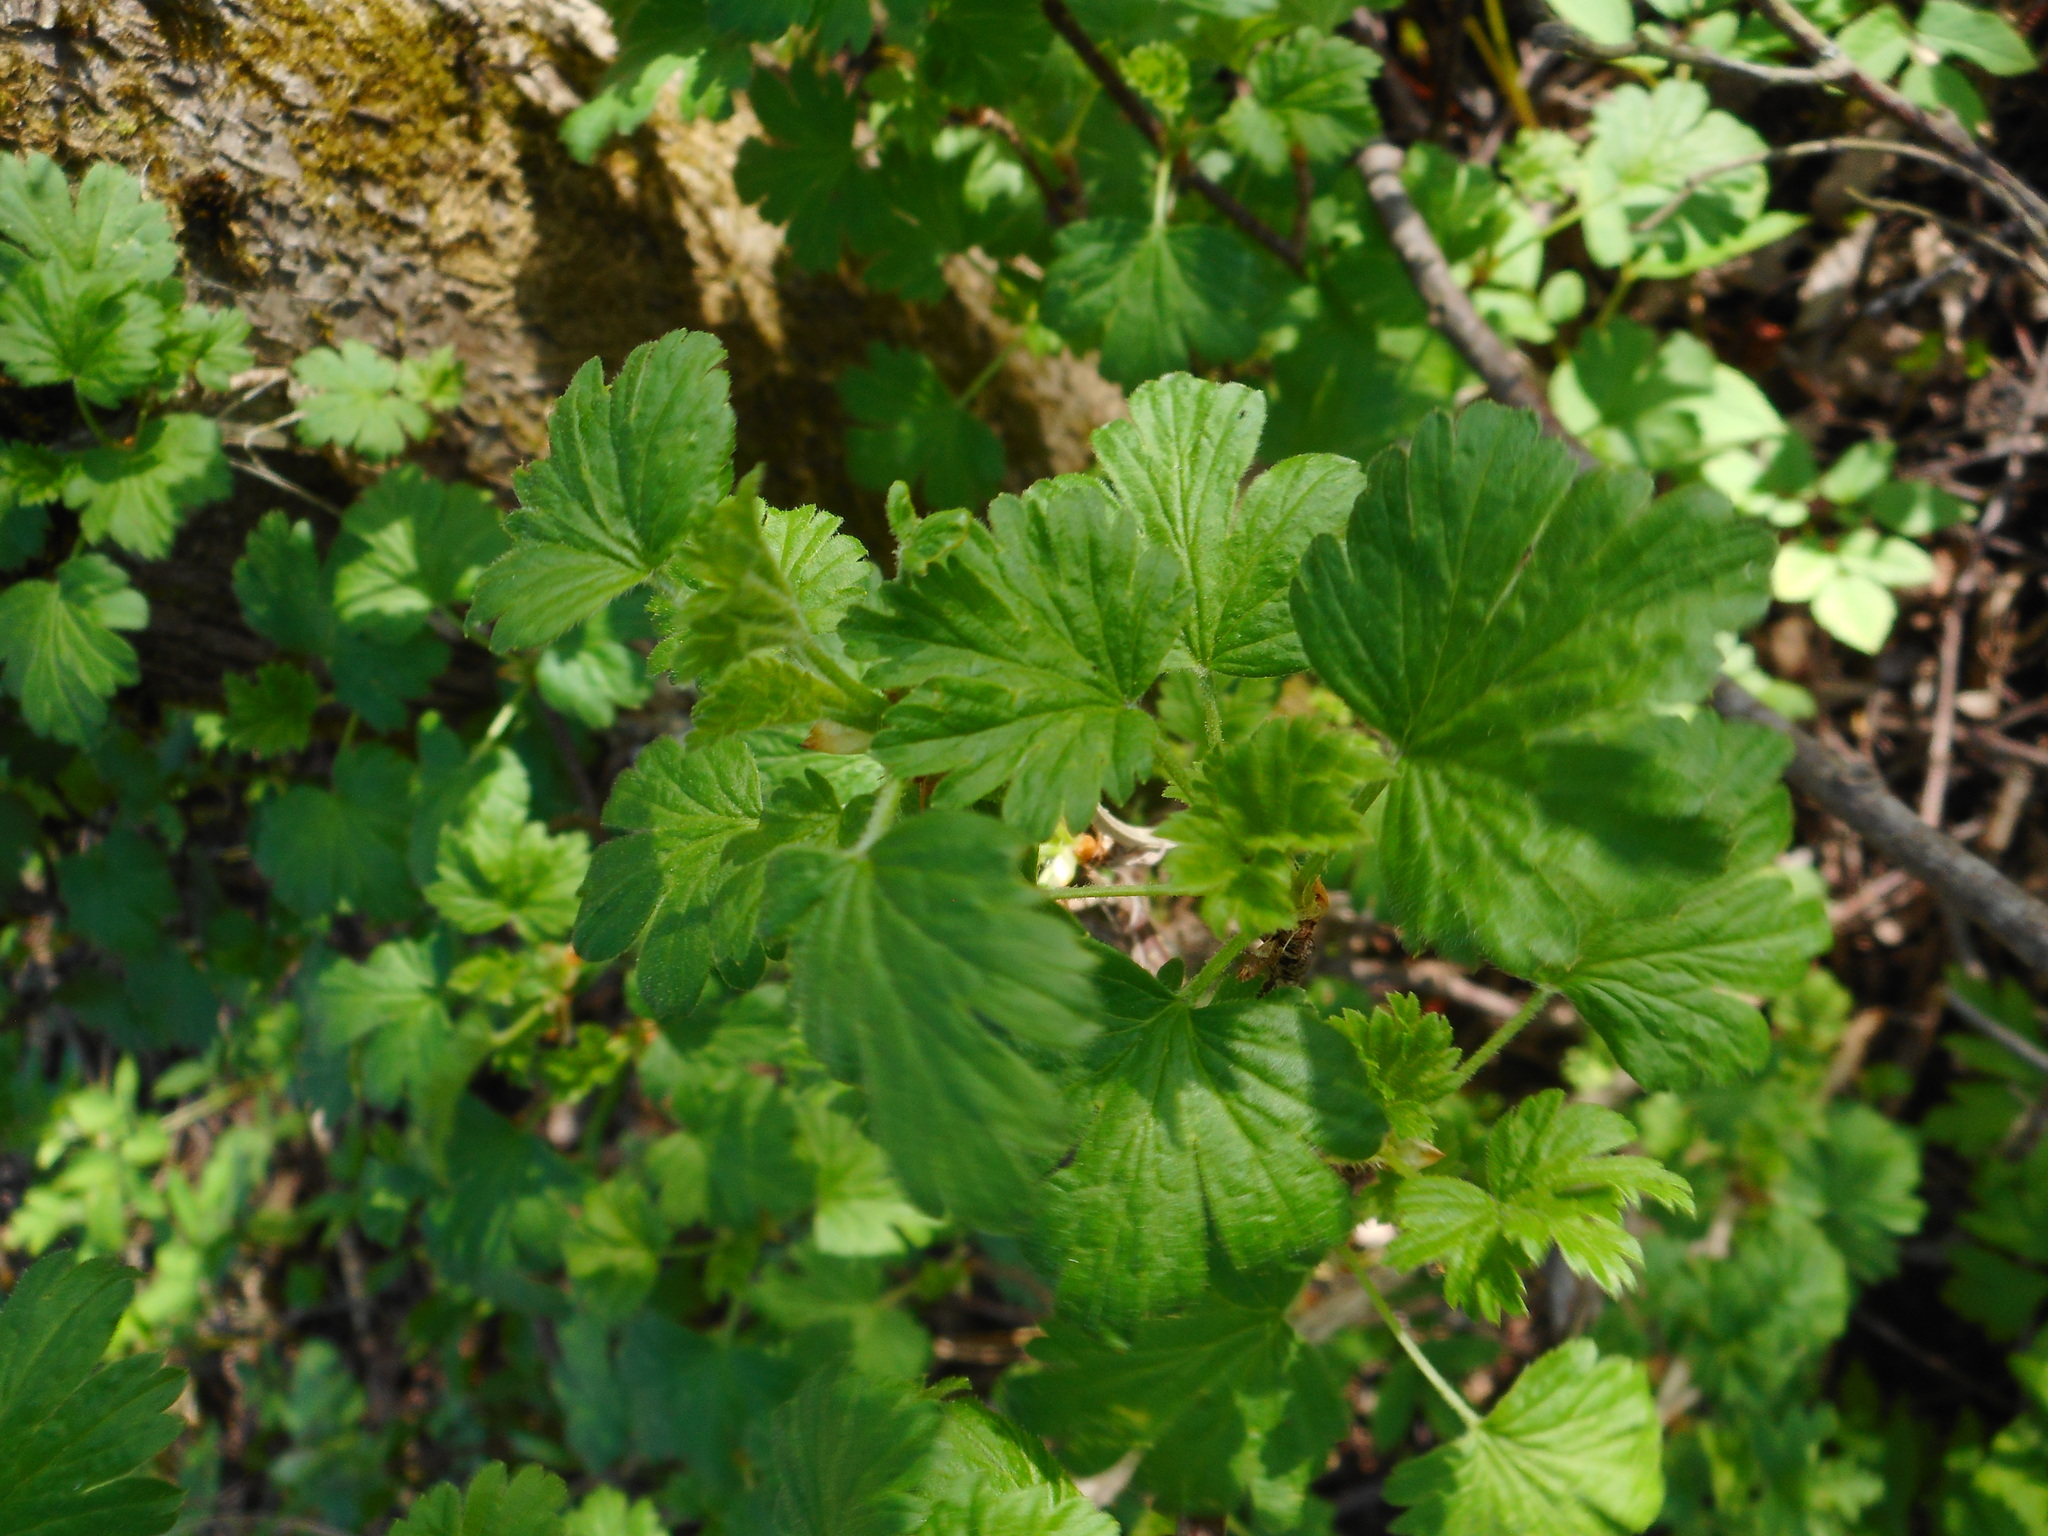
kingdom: Plantae
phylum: Tracheophyta
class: Magnoliopsida
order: Saxifragales
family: Grossulariaceae
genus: Ribes
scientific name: Ribes uva-crispa
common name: Gooseberry
